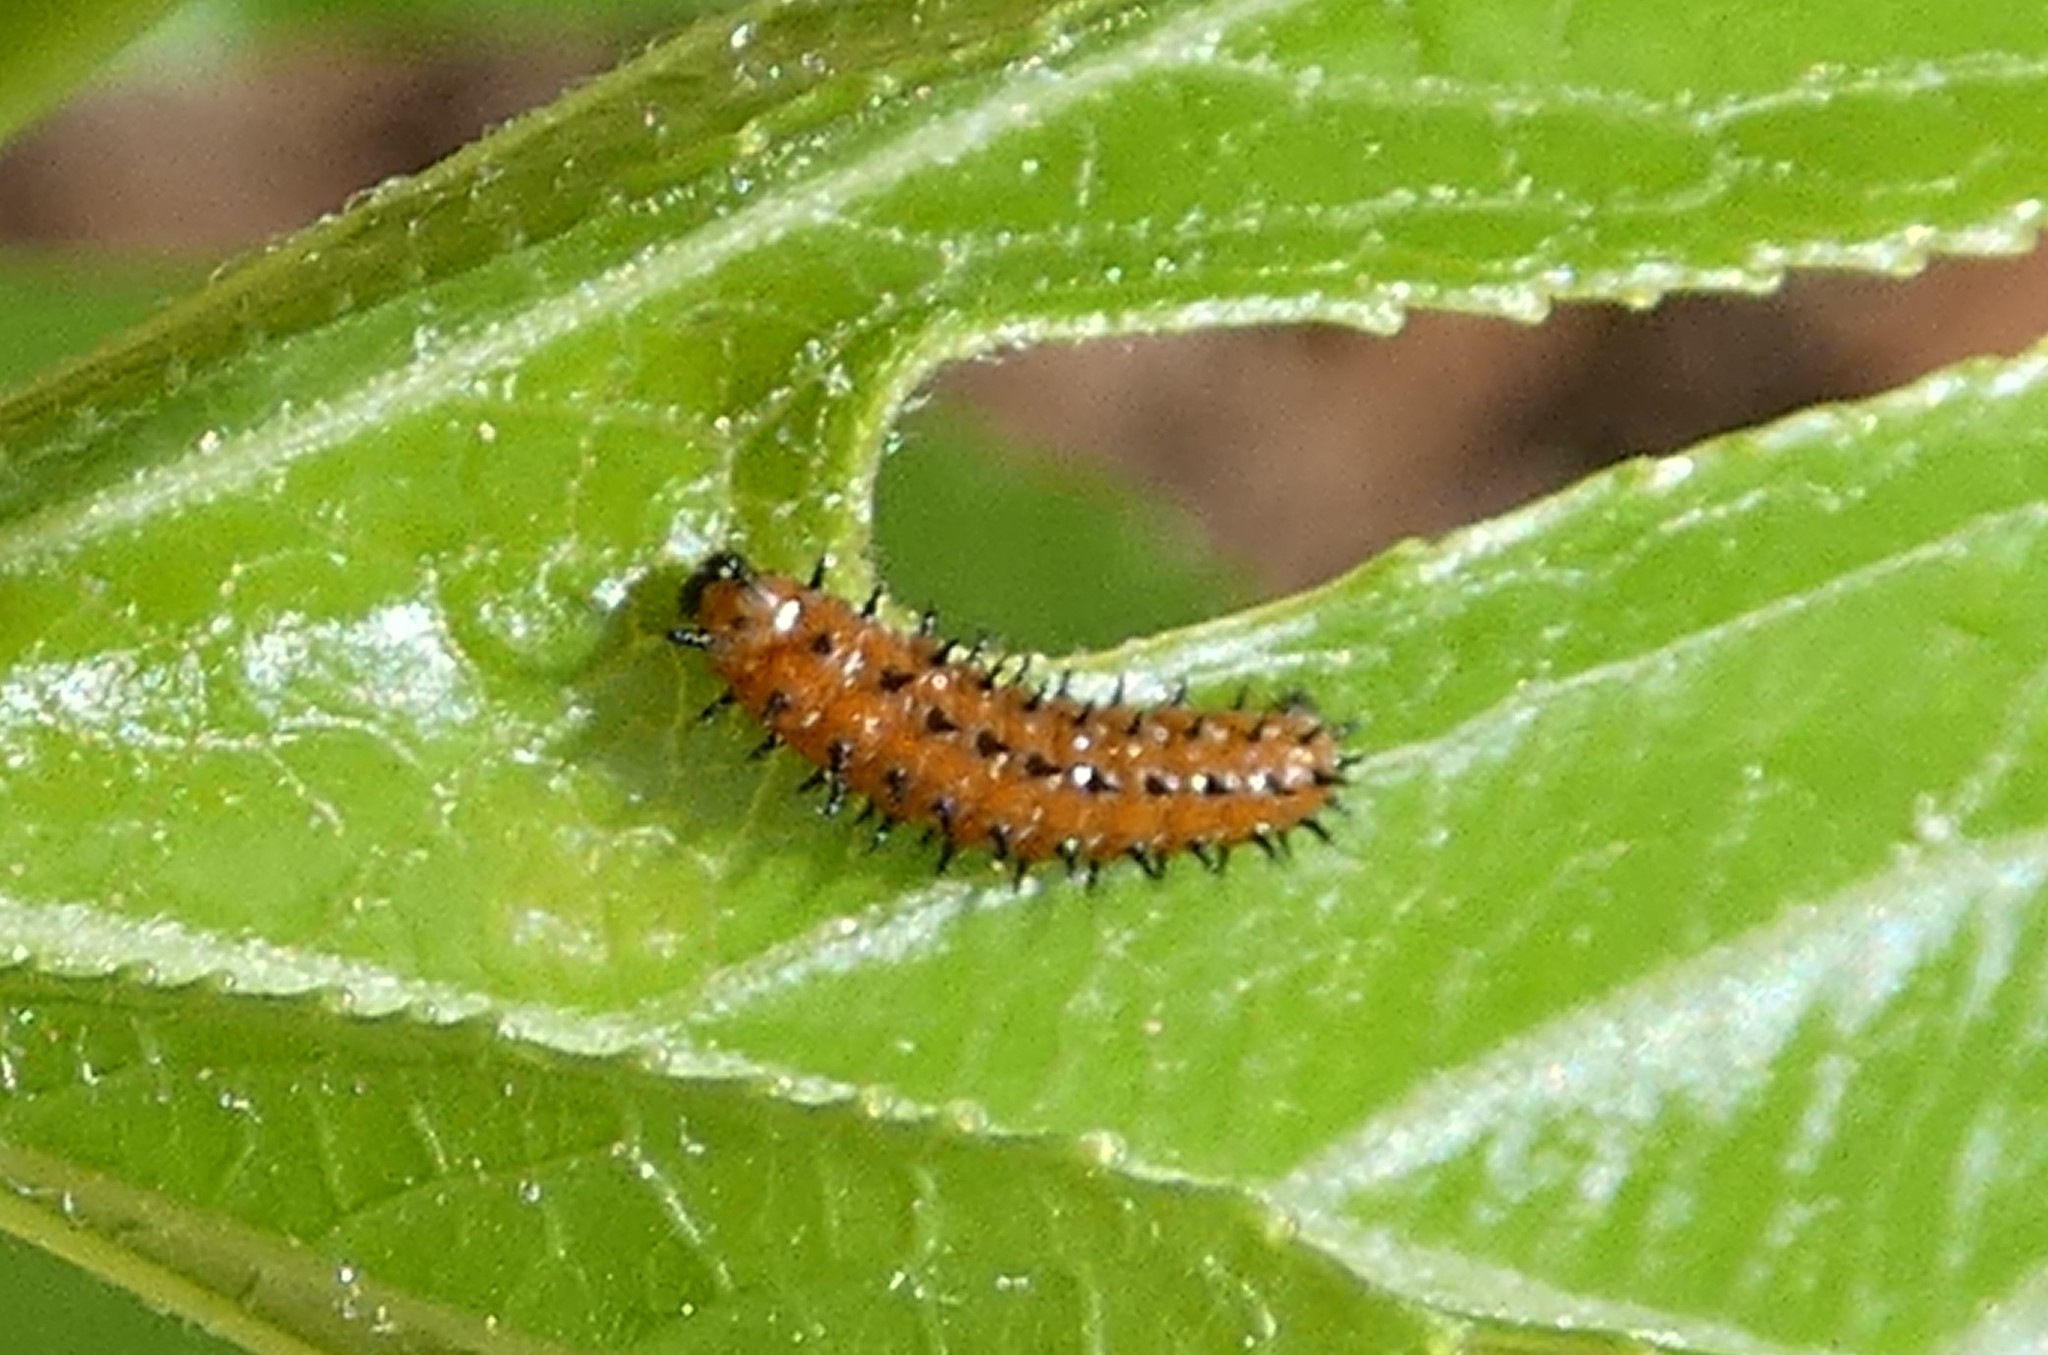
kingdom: Animalia
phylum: Arthropoda
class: Insecta
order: Lepidoptera
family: Nymphalidae
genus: Dione
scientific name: Dione vanillae
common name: Gulf fritillary
